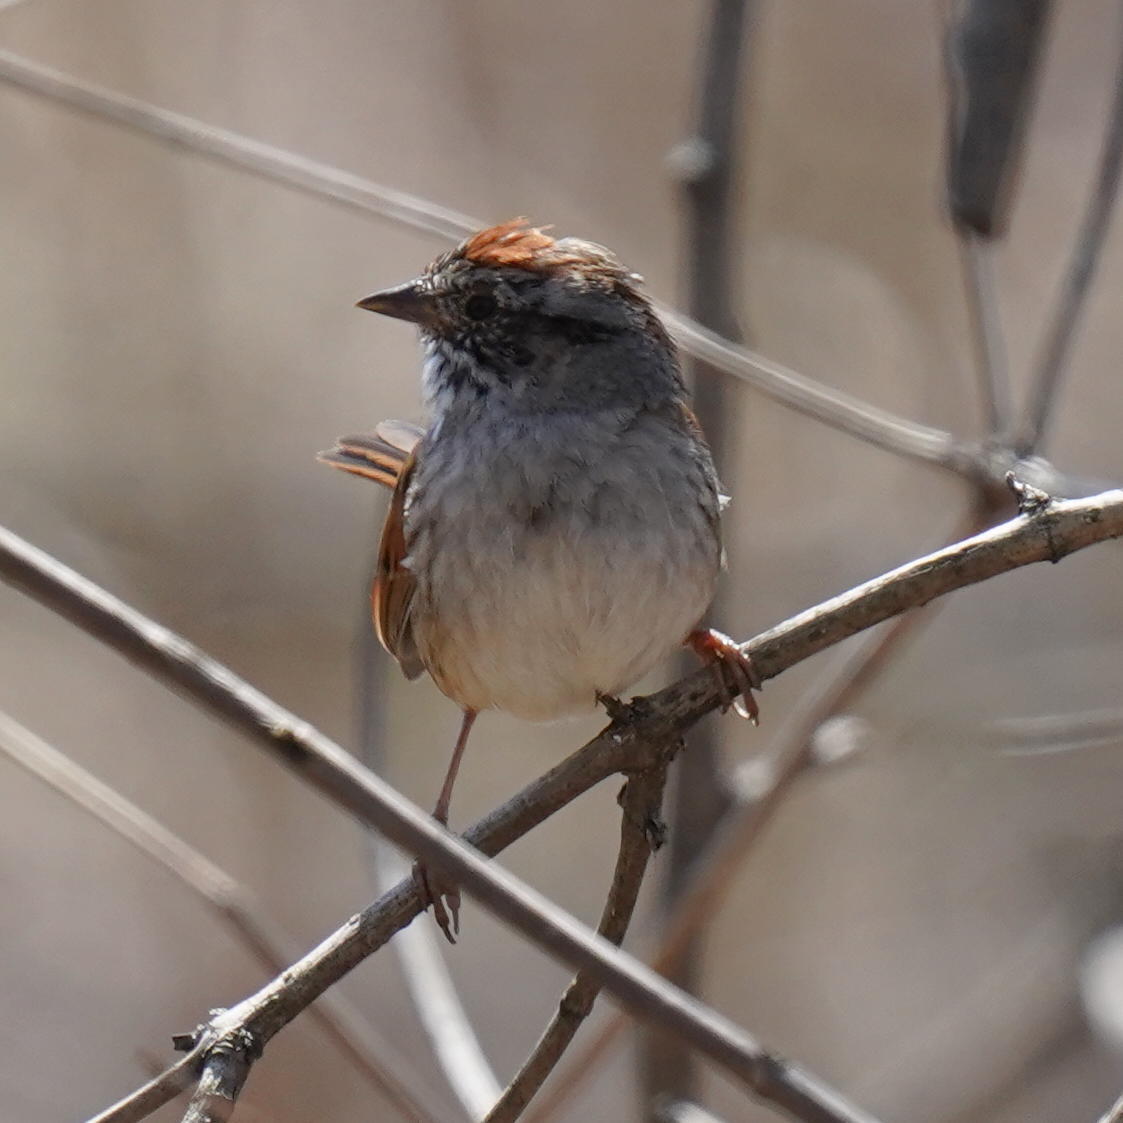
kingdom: Animalia
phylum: Chordata
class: Aves
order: Passeriformes
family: Passerellidae
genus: Melospiza
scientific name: Melospiza georgiana
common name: Swamp sparrow
